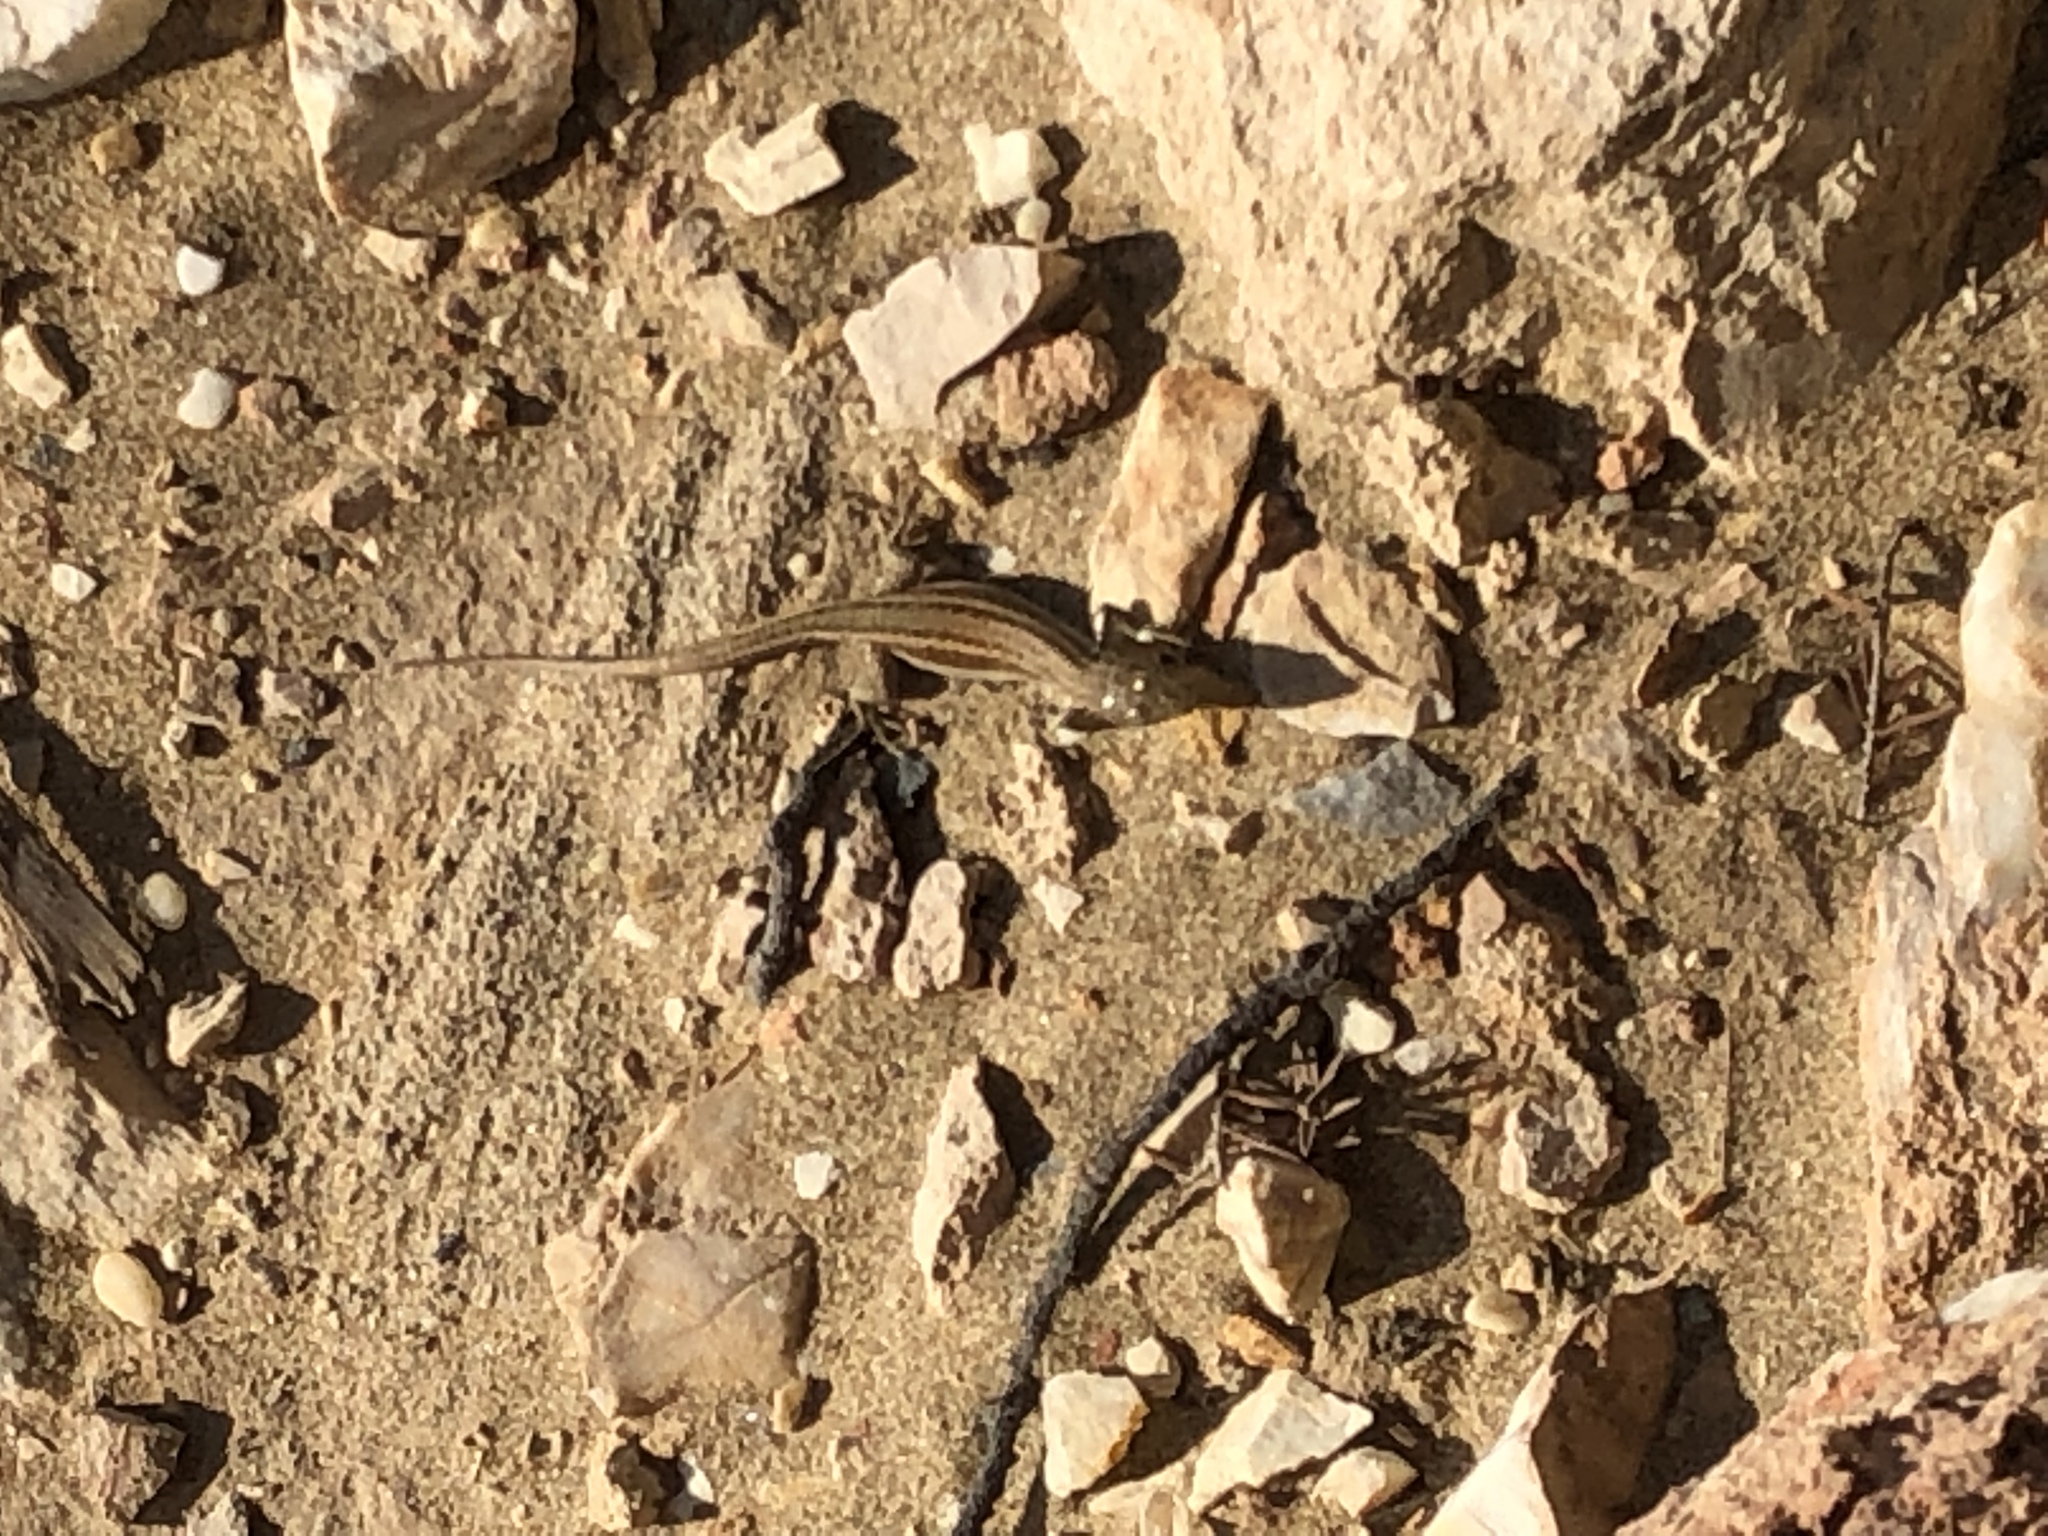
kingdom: Animalia
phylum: Chordata
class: Squamata
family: Lacertidae
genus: Podarcis
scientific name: Podarcis erhardii
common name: Erhard's wall lizard
